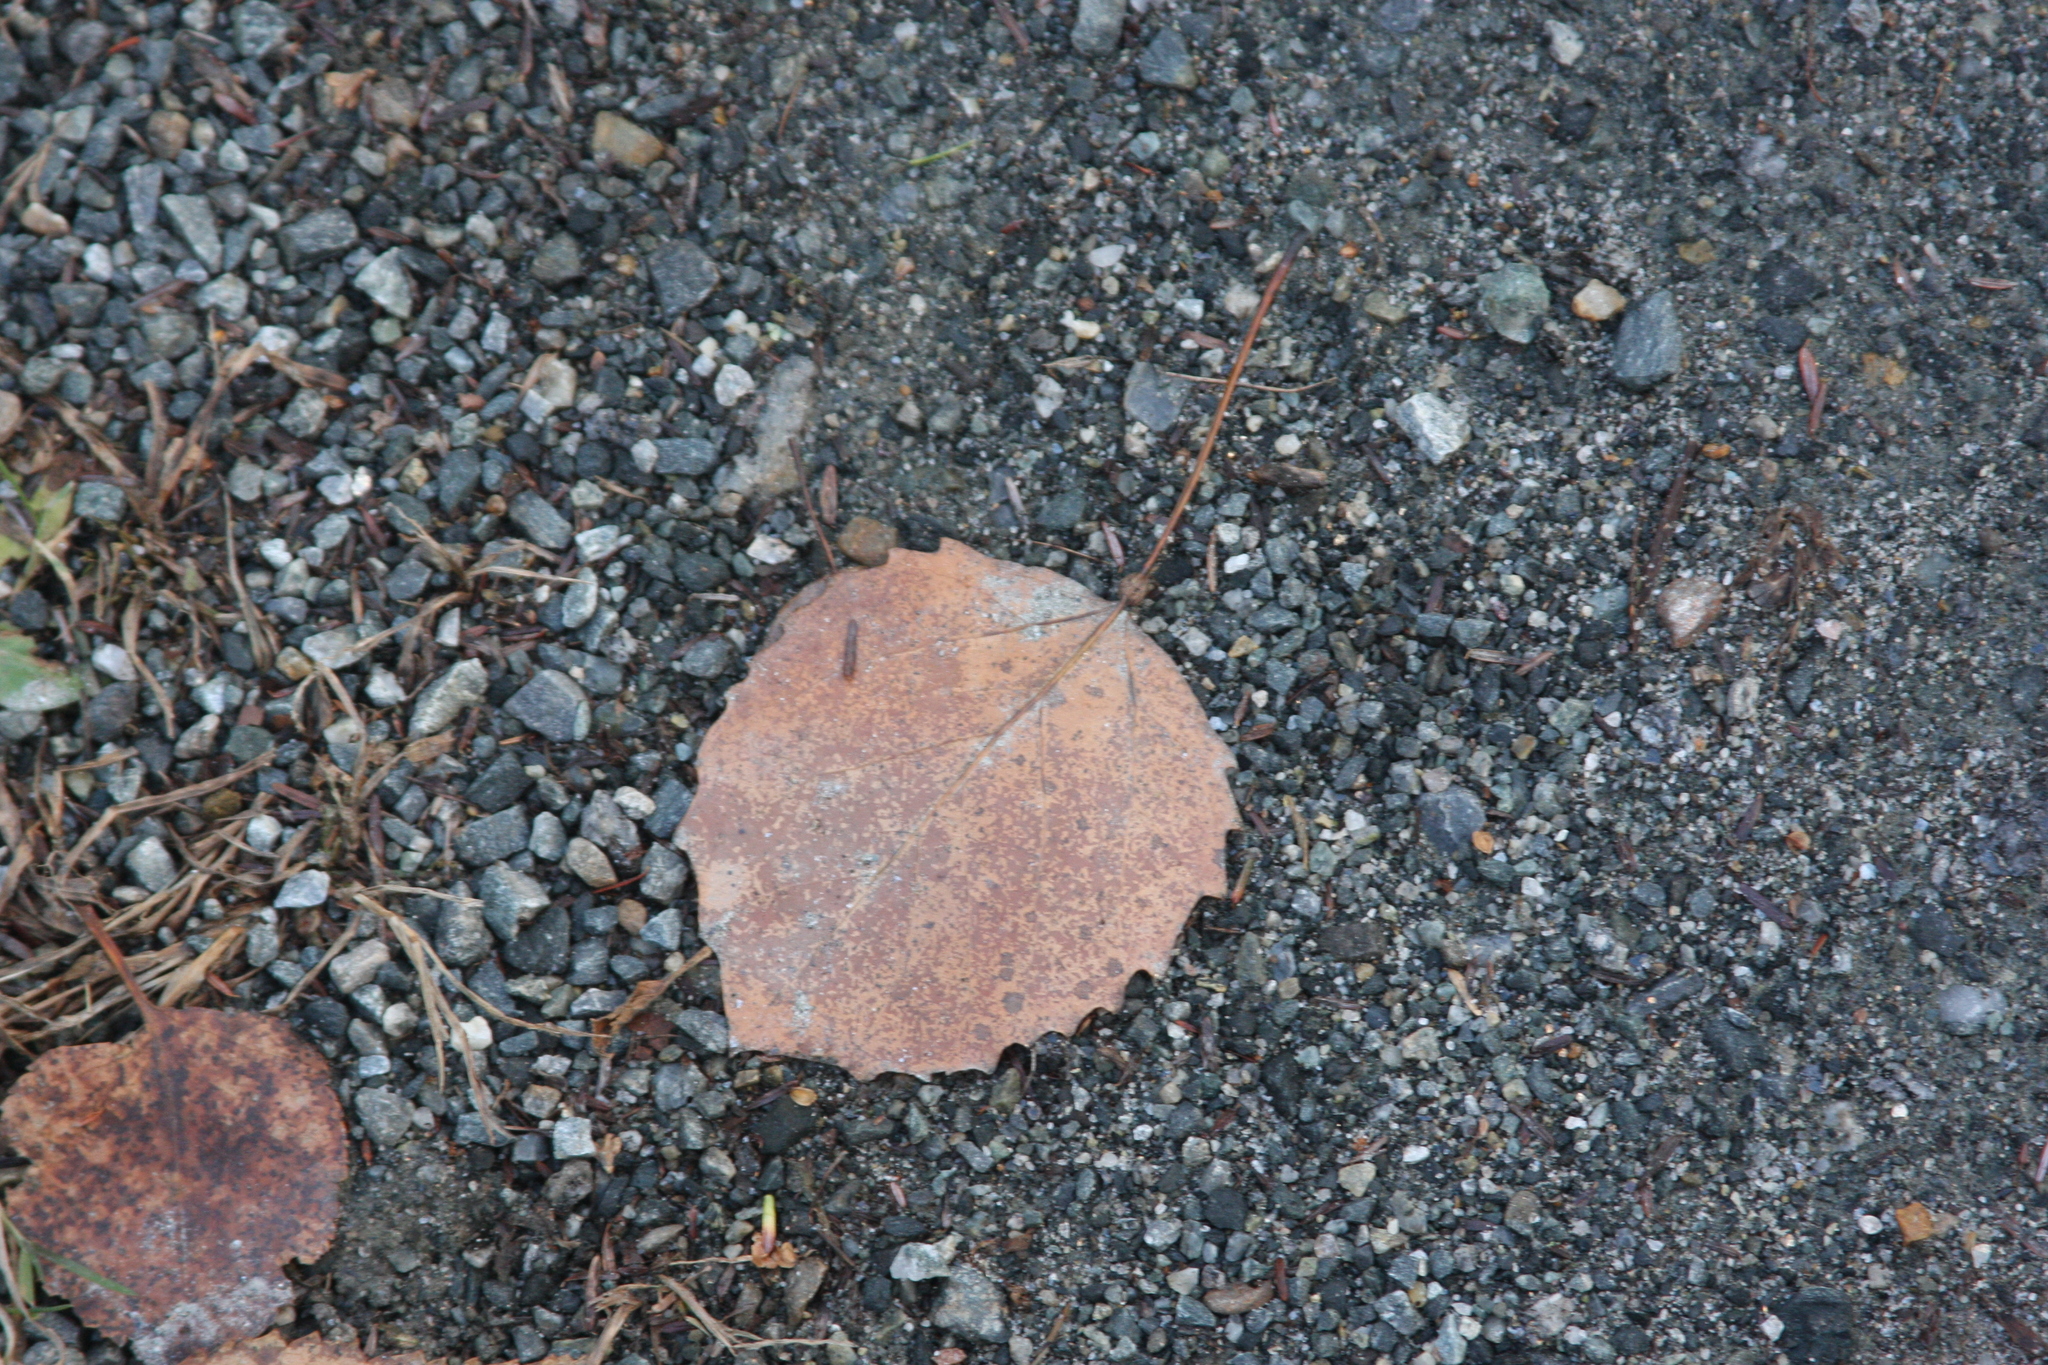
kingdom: Plantae
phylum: Tracheophyta
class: Magnoliopsida
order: Malpighiales
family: Salicaceae
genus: Populus
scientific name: Populus grandidentata
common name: Bigtooth aspen
